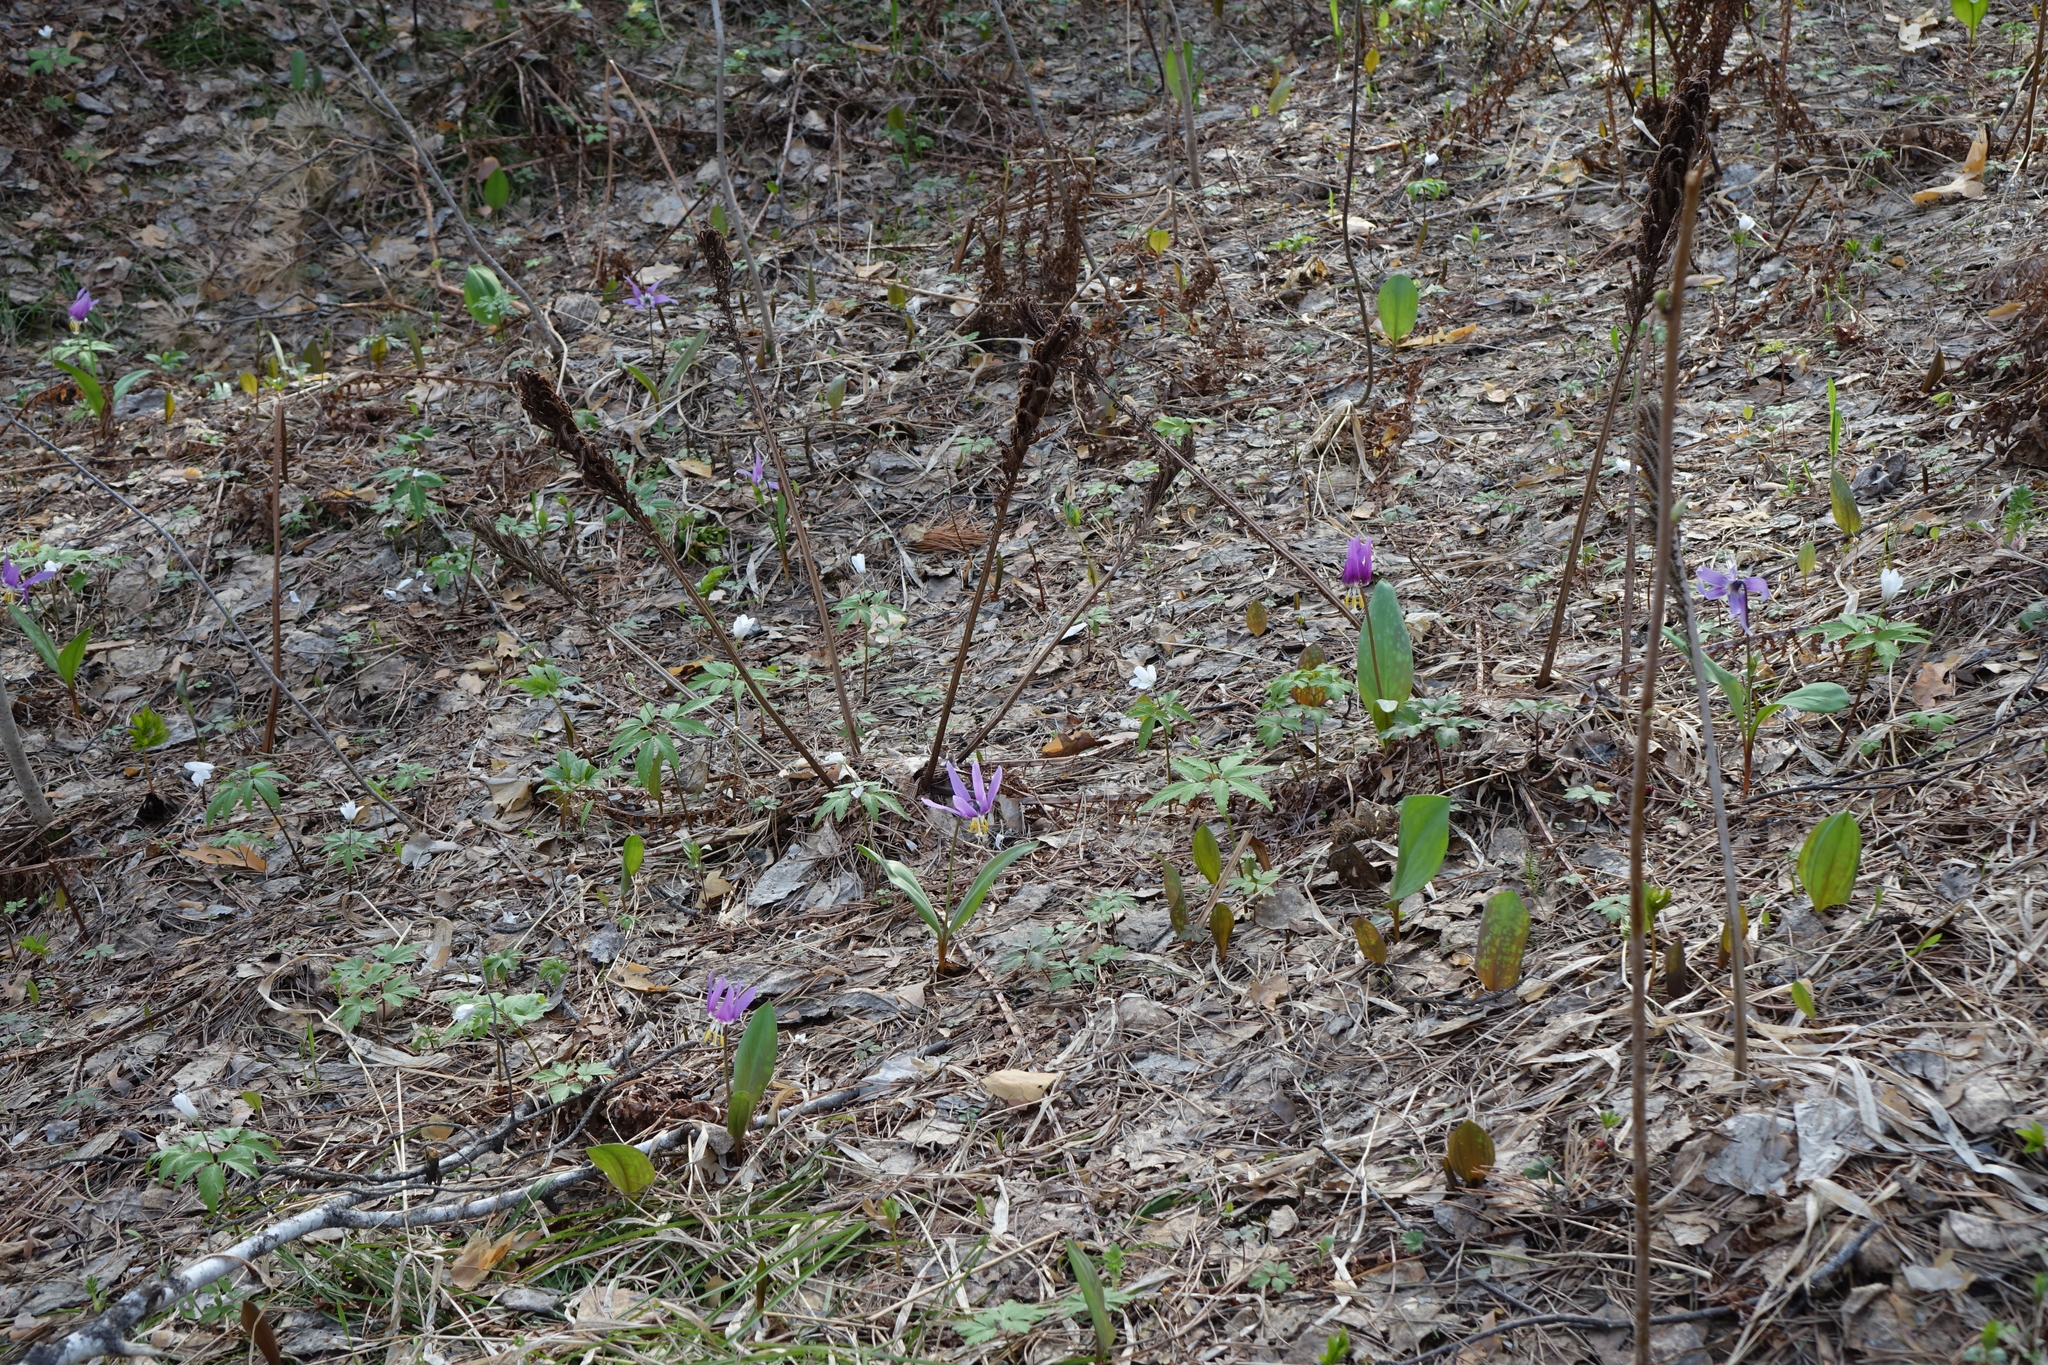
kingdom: Plantae
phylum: Tracheophyta
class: Liliopsida
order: Liliales
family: Liliaceae
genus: Erythronium
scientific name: Erythronium sibiricum
